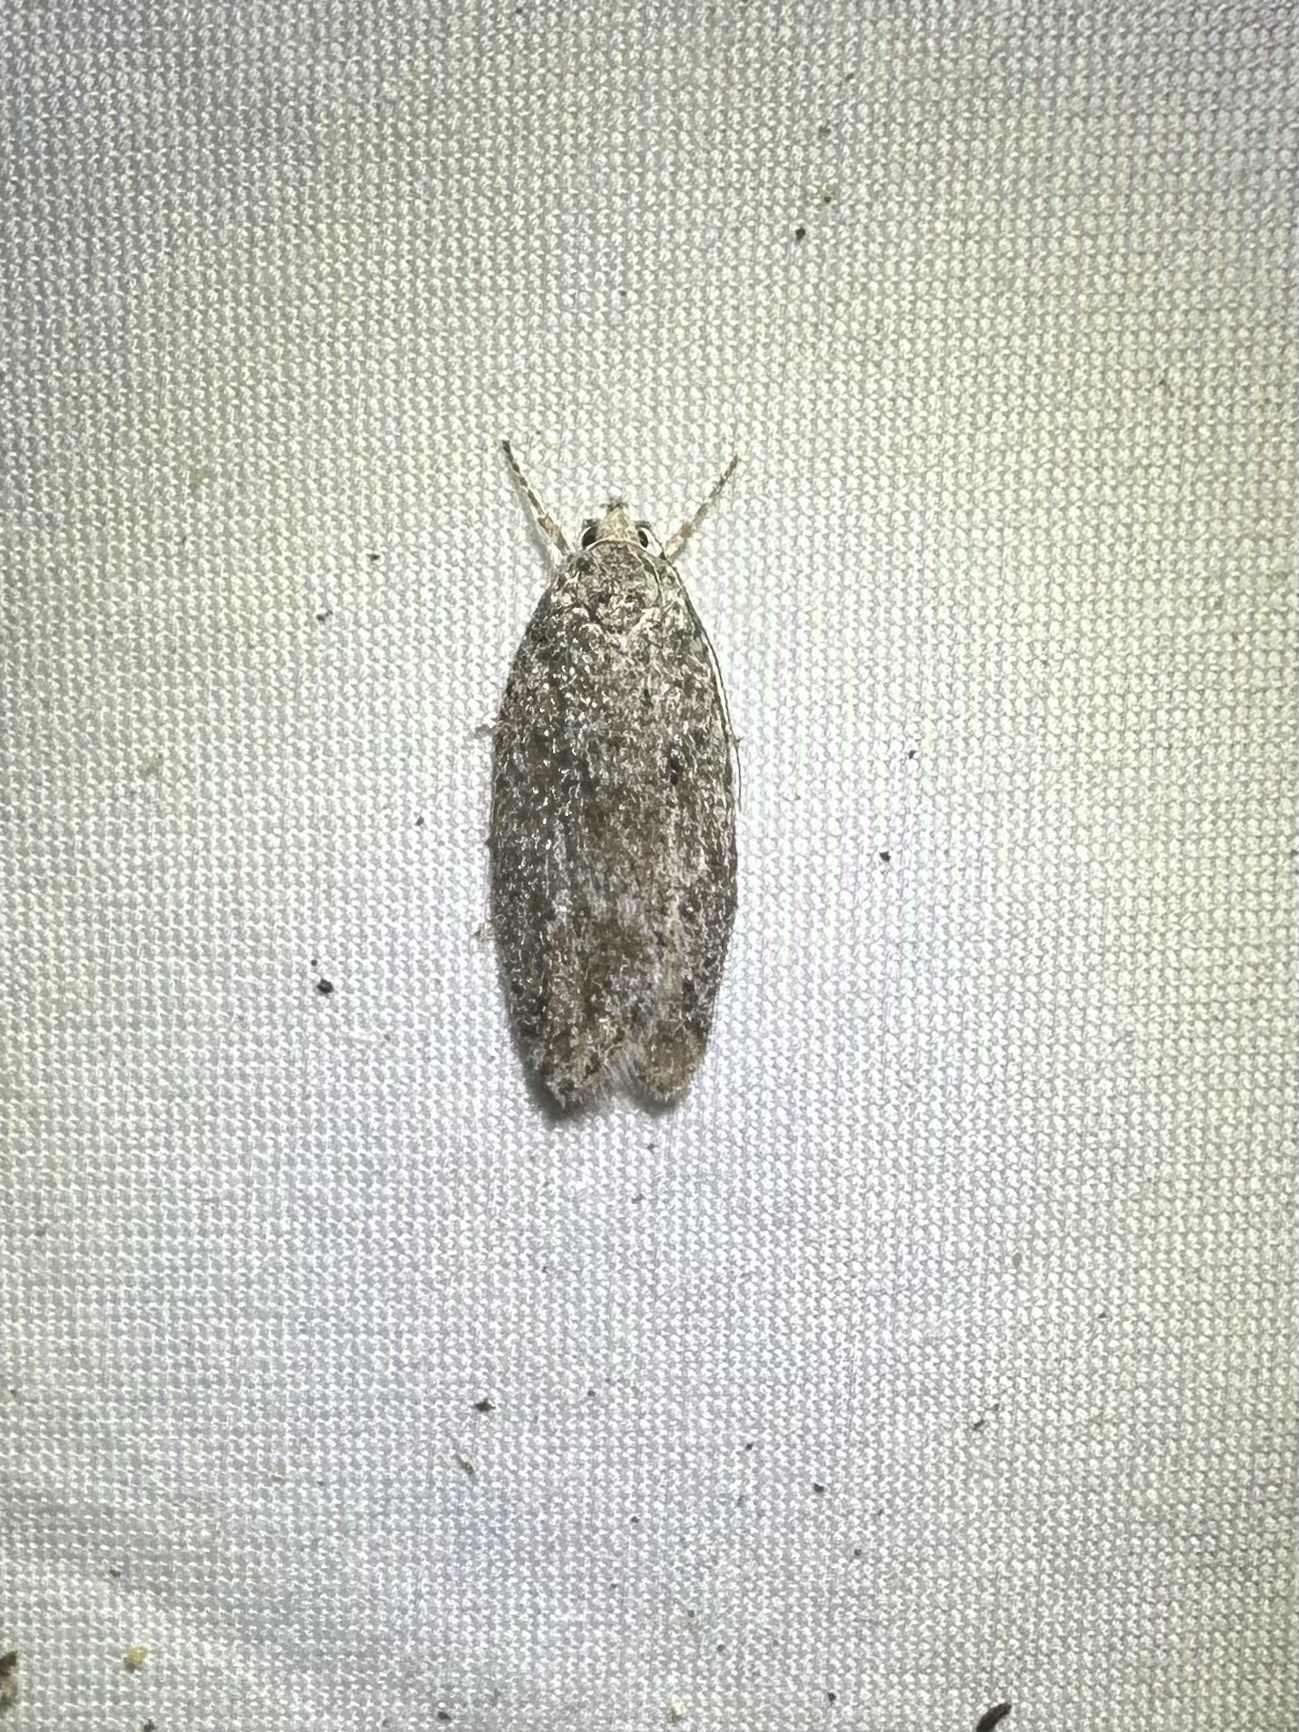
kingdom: Animalia
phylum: Arthropoda
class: Insecta
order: Lepidoptera
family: Depressariidae
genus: Semioscopis
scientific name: Semioscopis inornata
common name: Poplar micromoth
